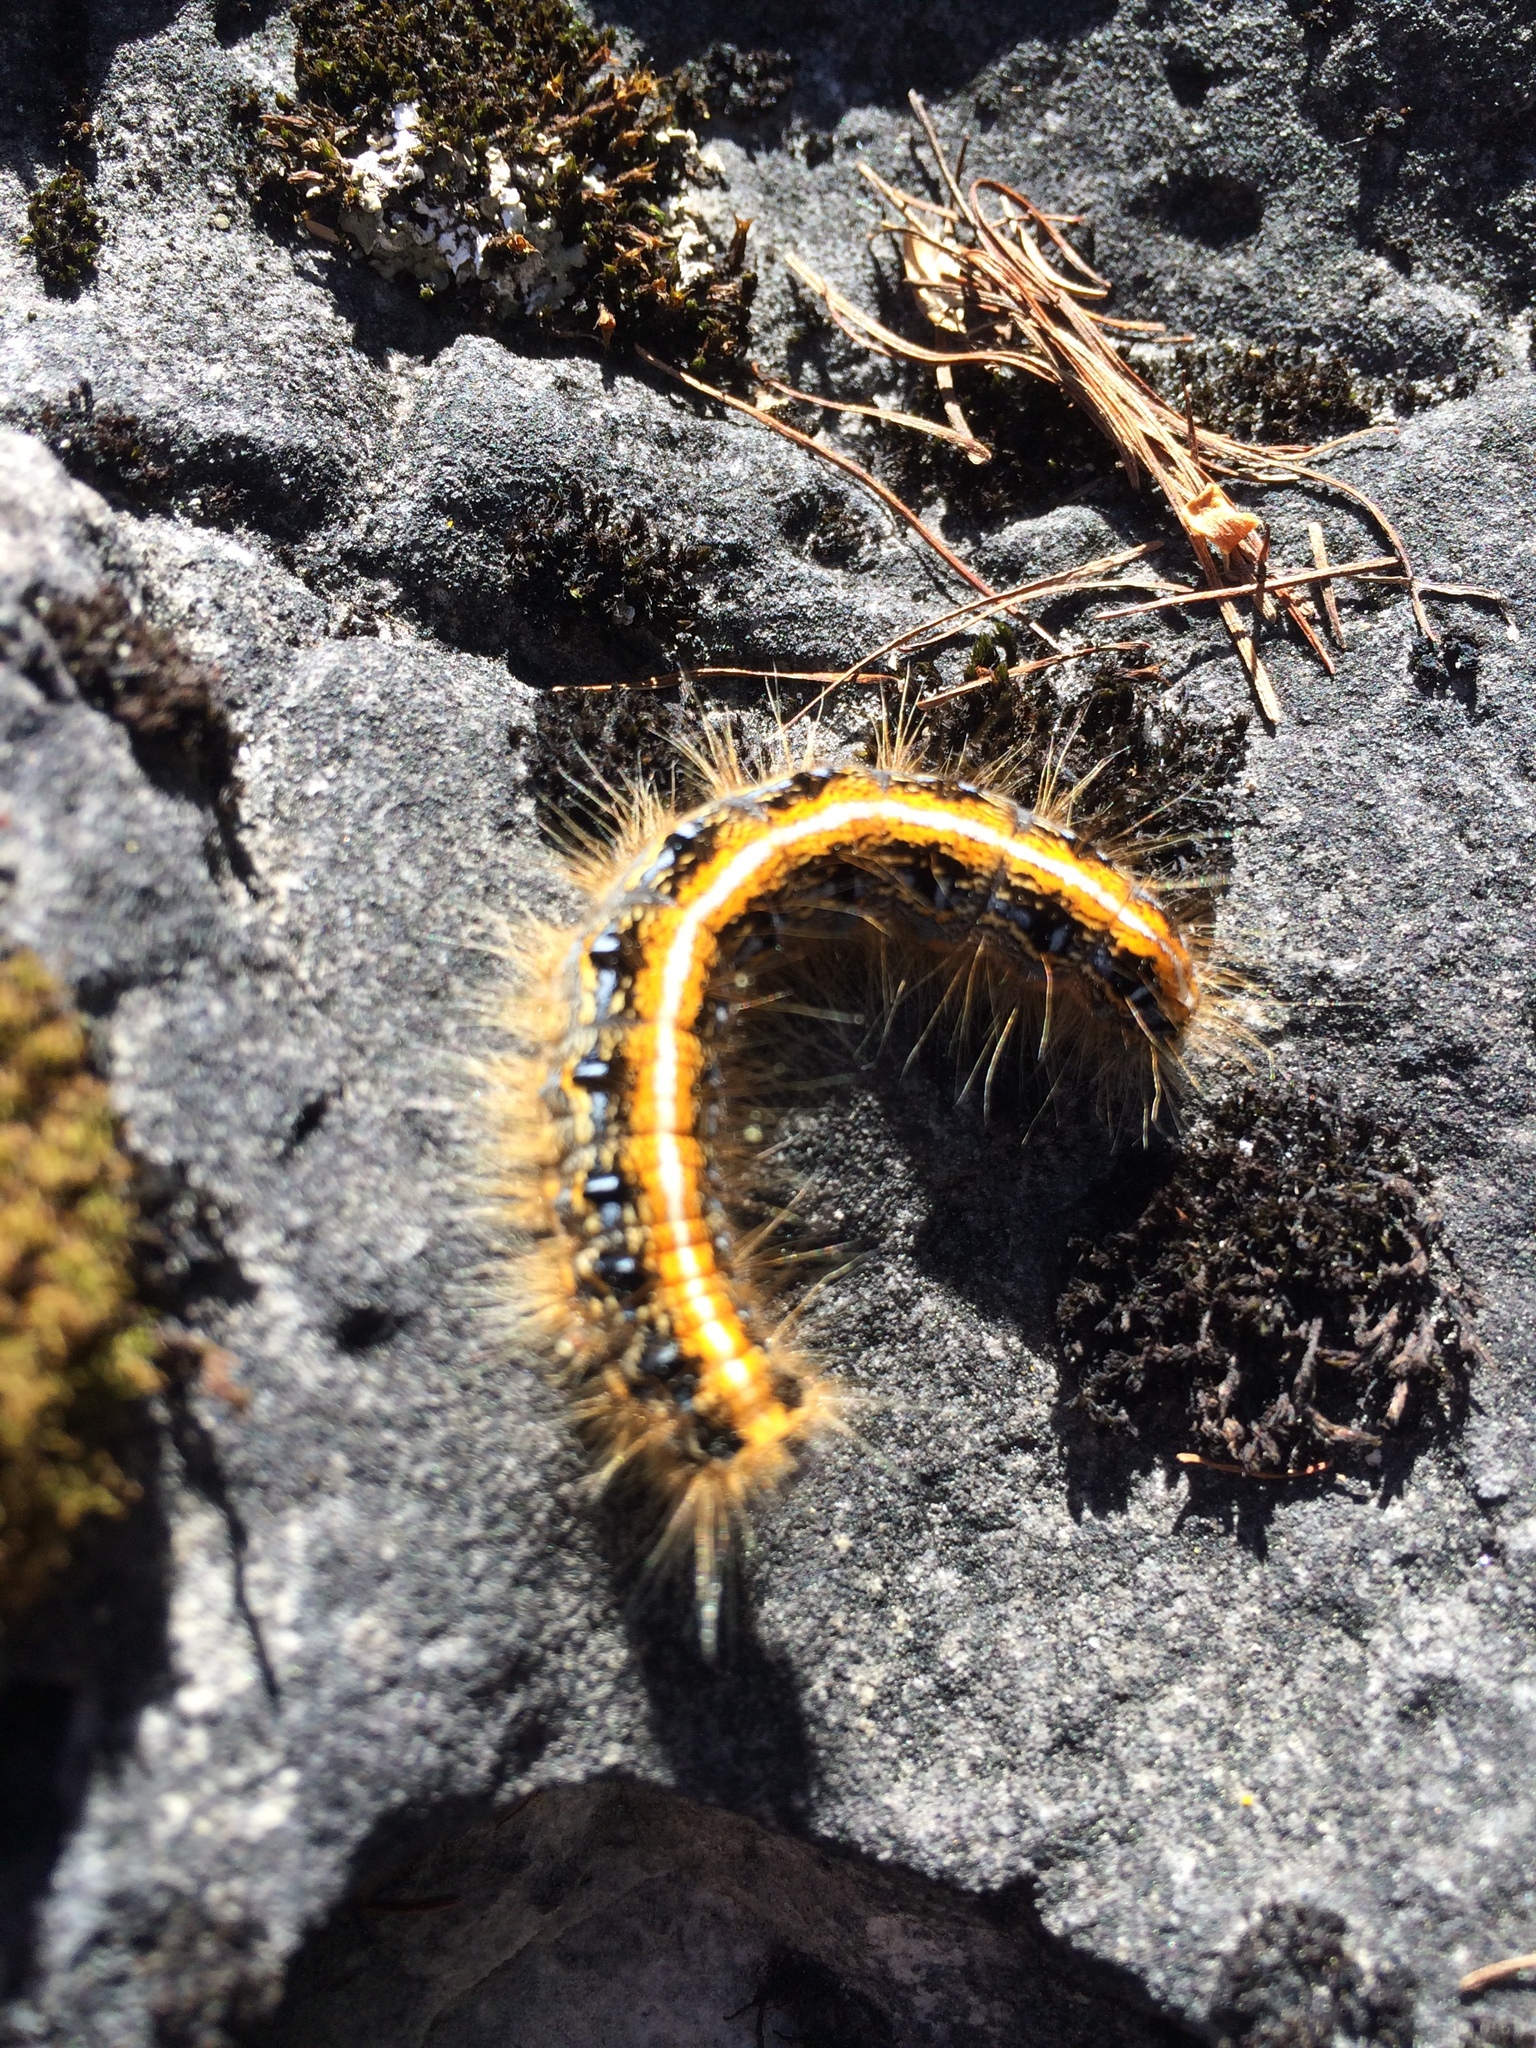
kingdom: Animalia
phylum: Arthropoda
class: Insecta
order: Lepidoptera
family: Lasiocampidae
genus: Malacosoma
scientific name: Malacosoma americana
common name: Eastern tent caterpillar moth
